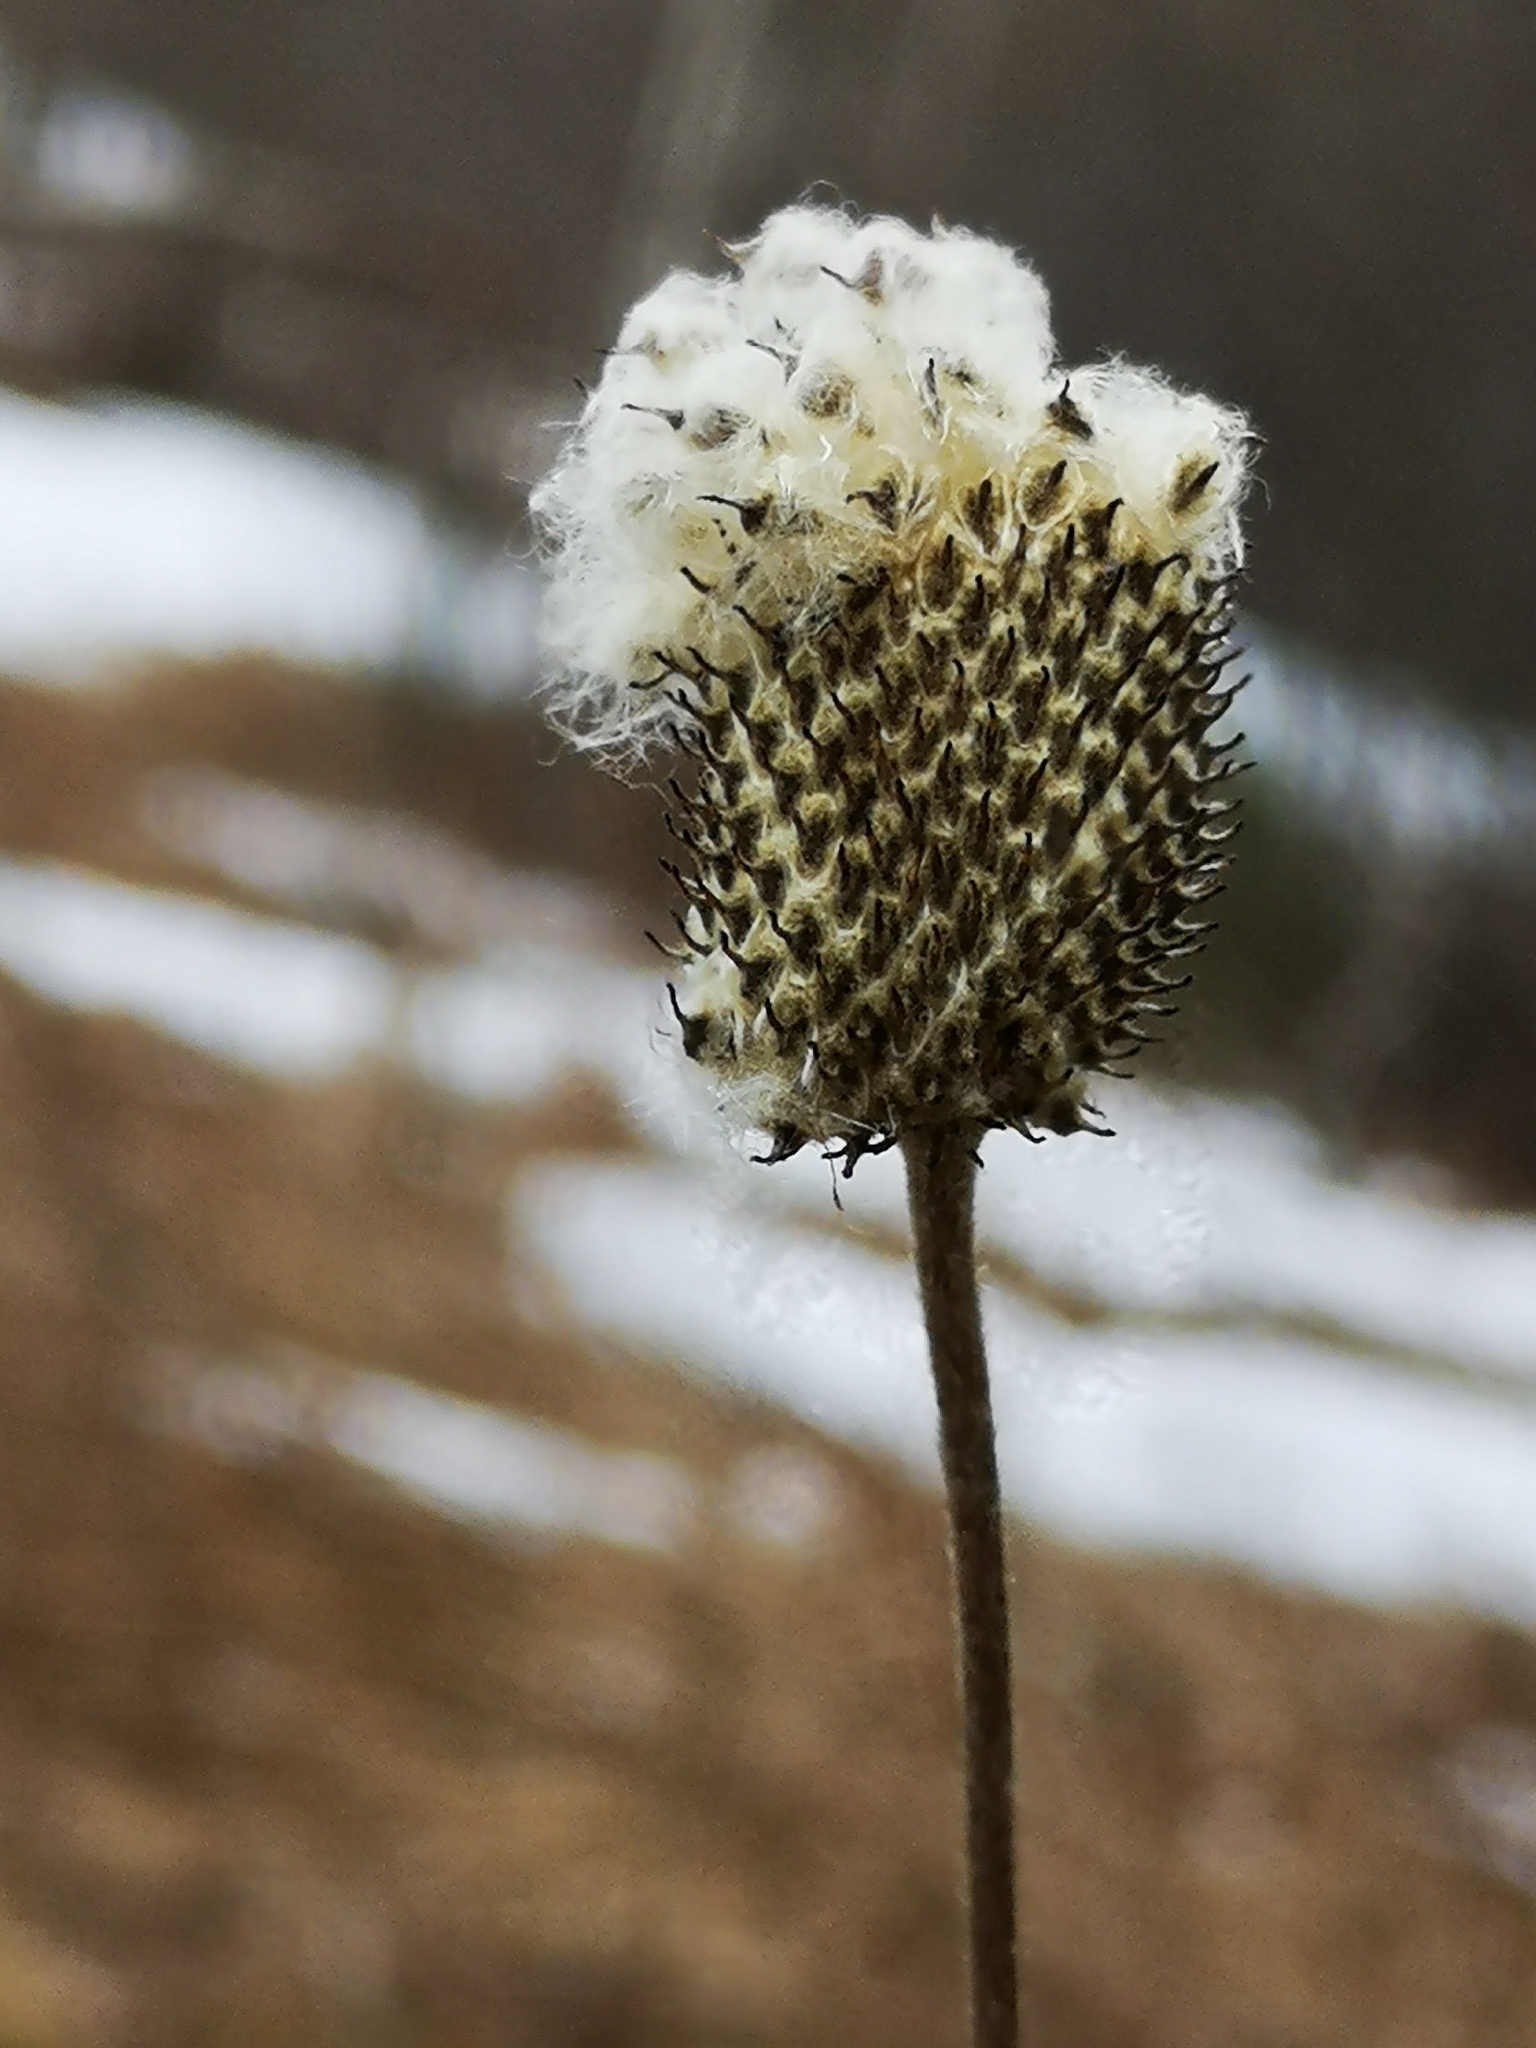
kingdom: Plantae
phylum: Tracheophyta
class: Magnoliopsida
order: Ranunculales
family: Ranunculaceae
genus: Anemone
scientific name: Anemone virginiana
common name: Tall anemone
